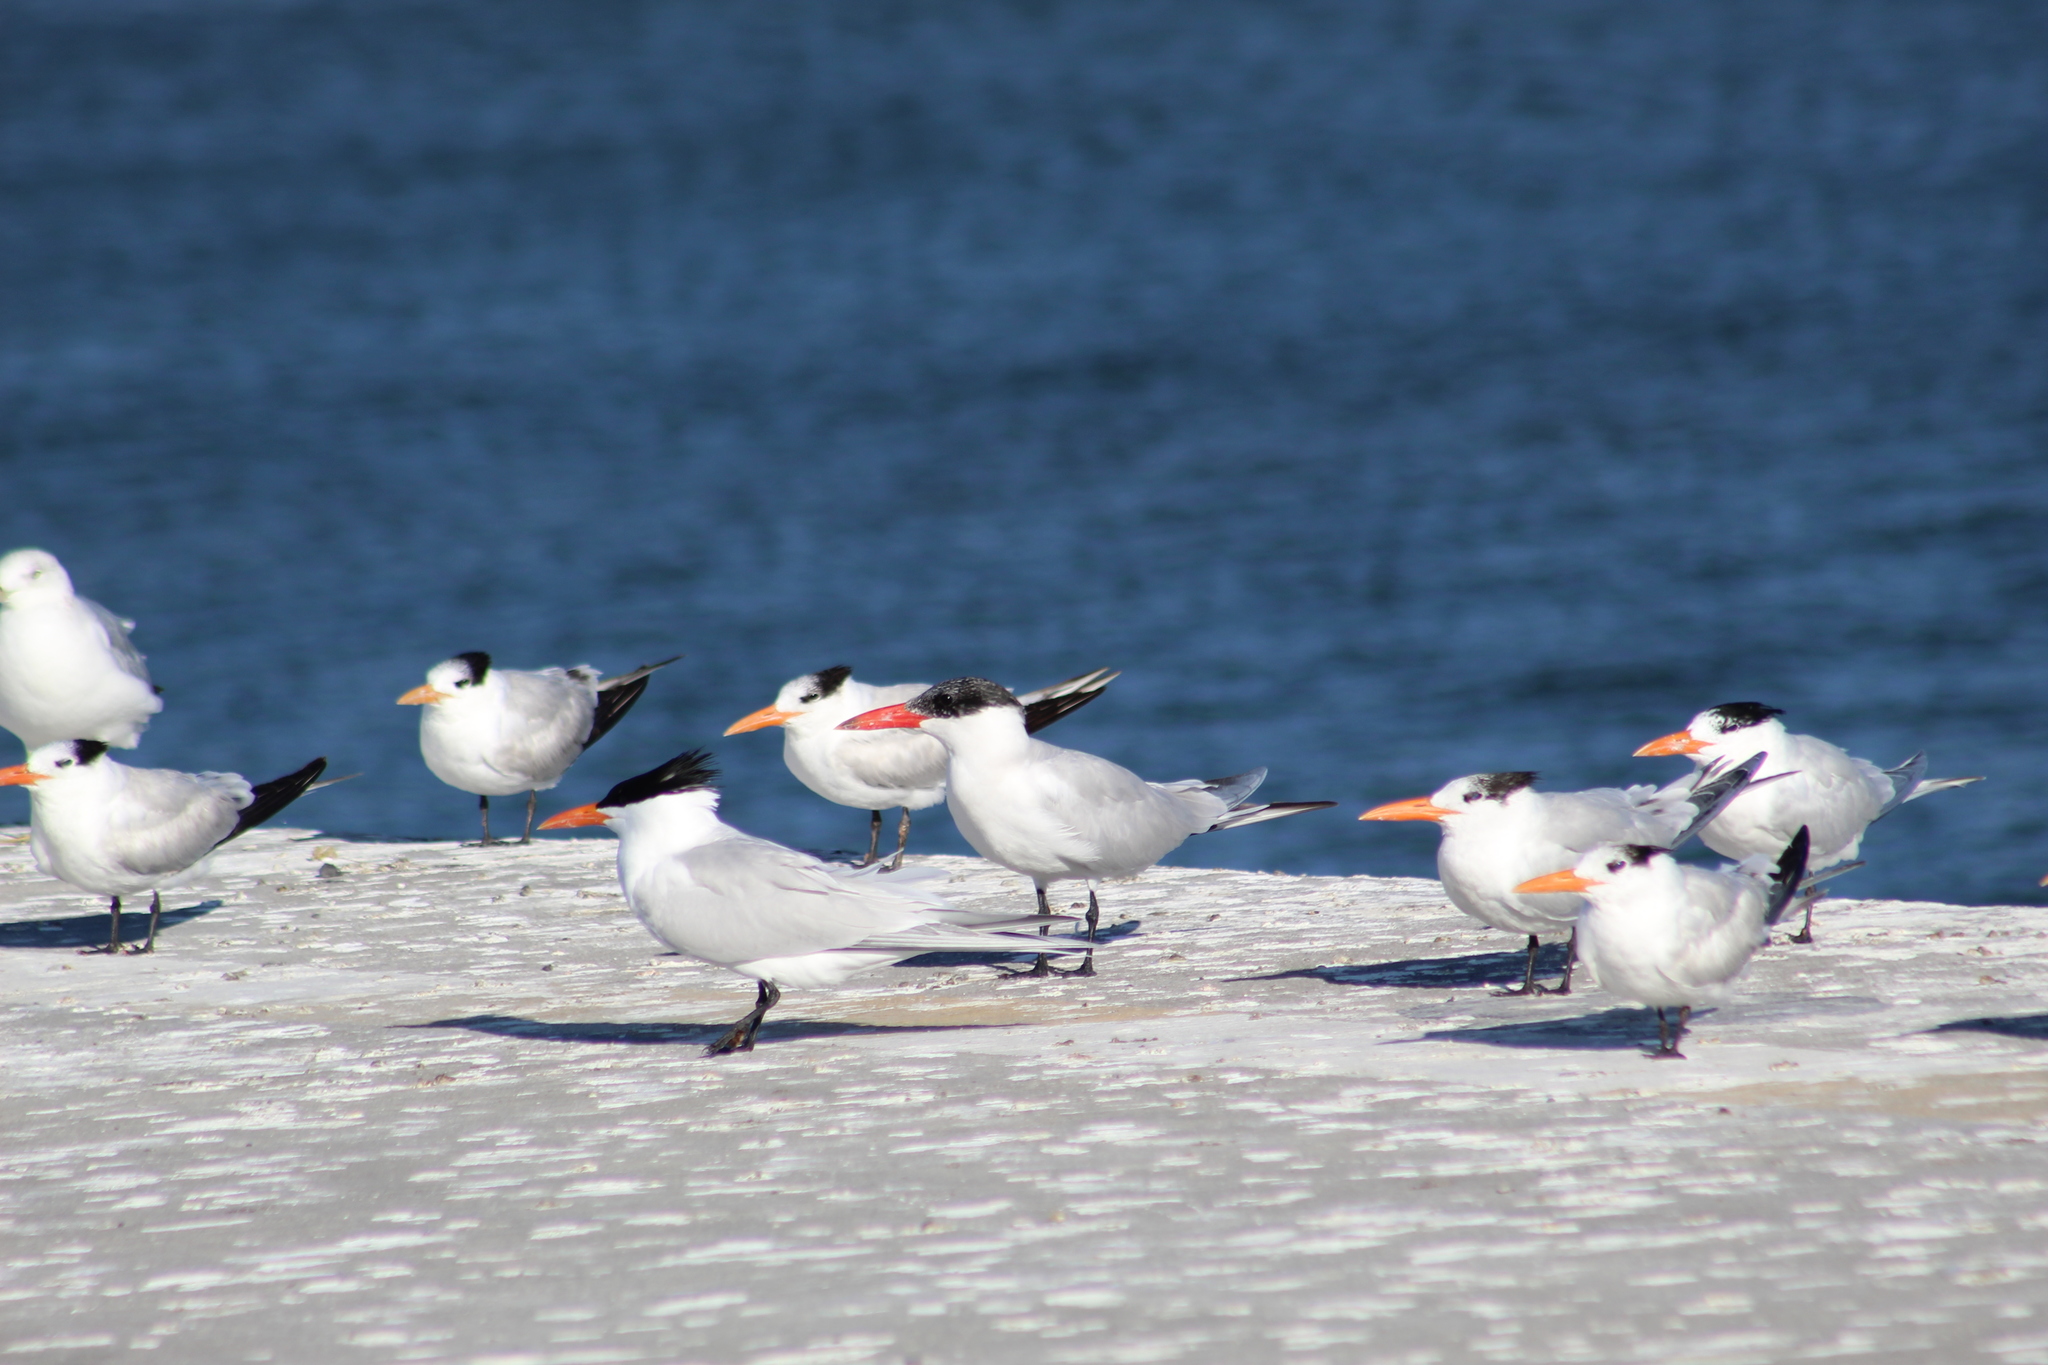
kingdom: Animalia
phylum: Chordata
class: Aves
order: Charadriiformes
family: Laridae
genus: Thalasseus
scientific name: Thalasseus maximus
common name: Royal tern
